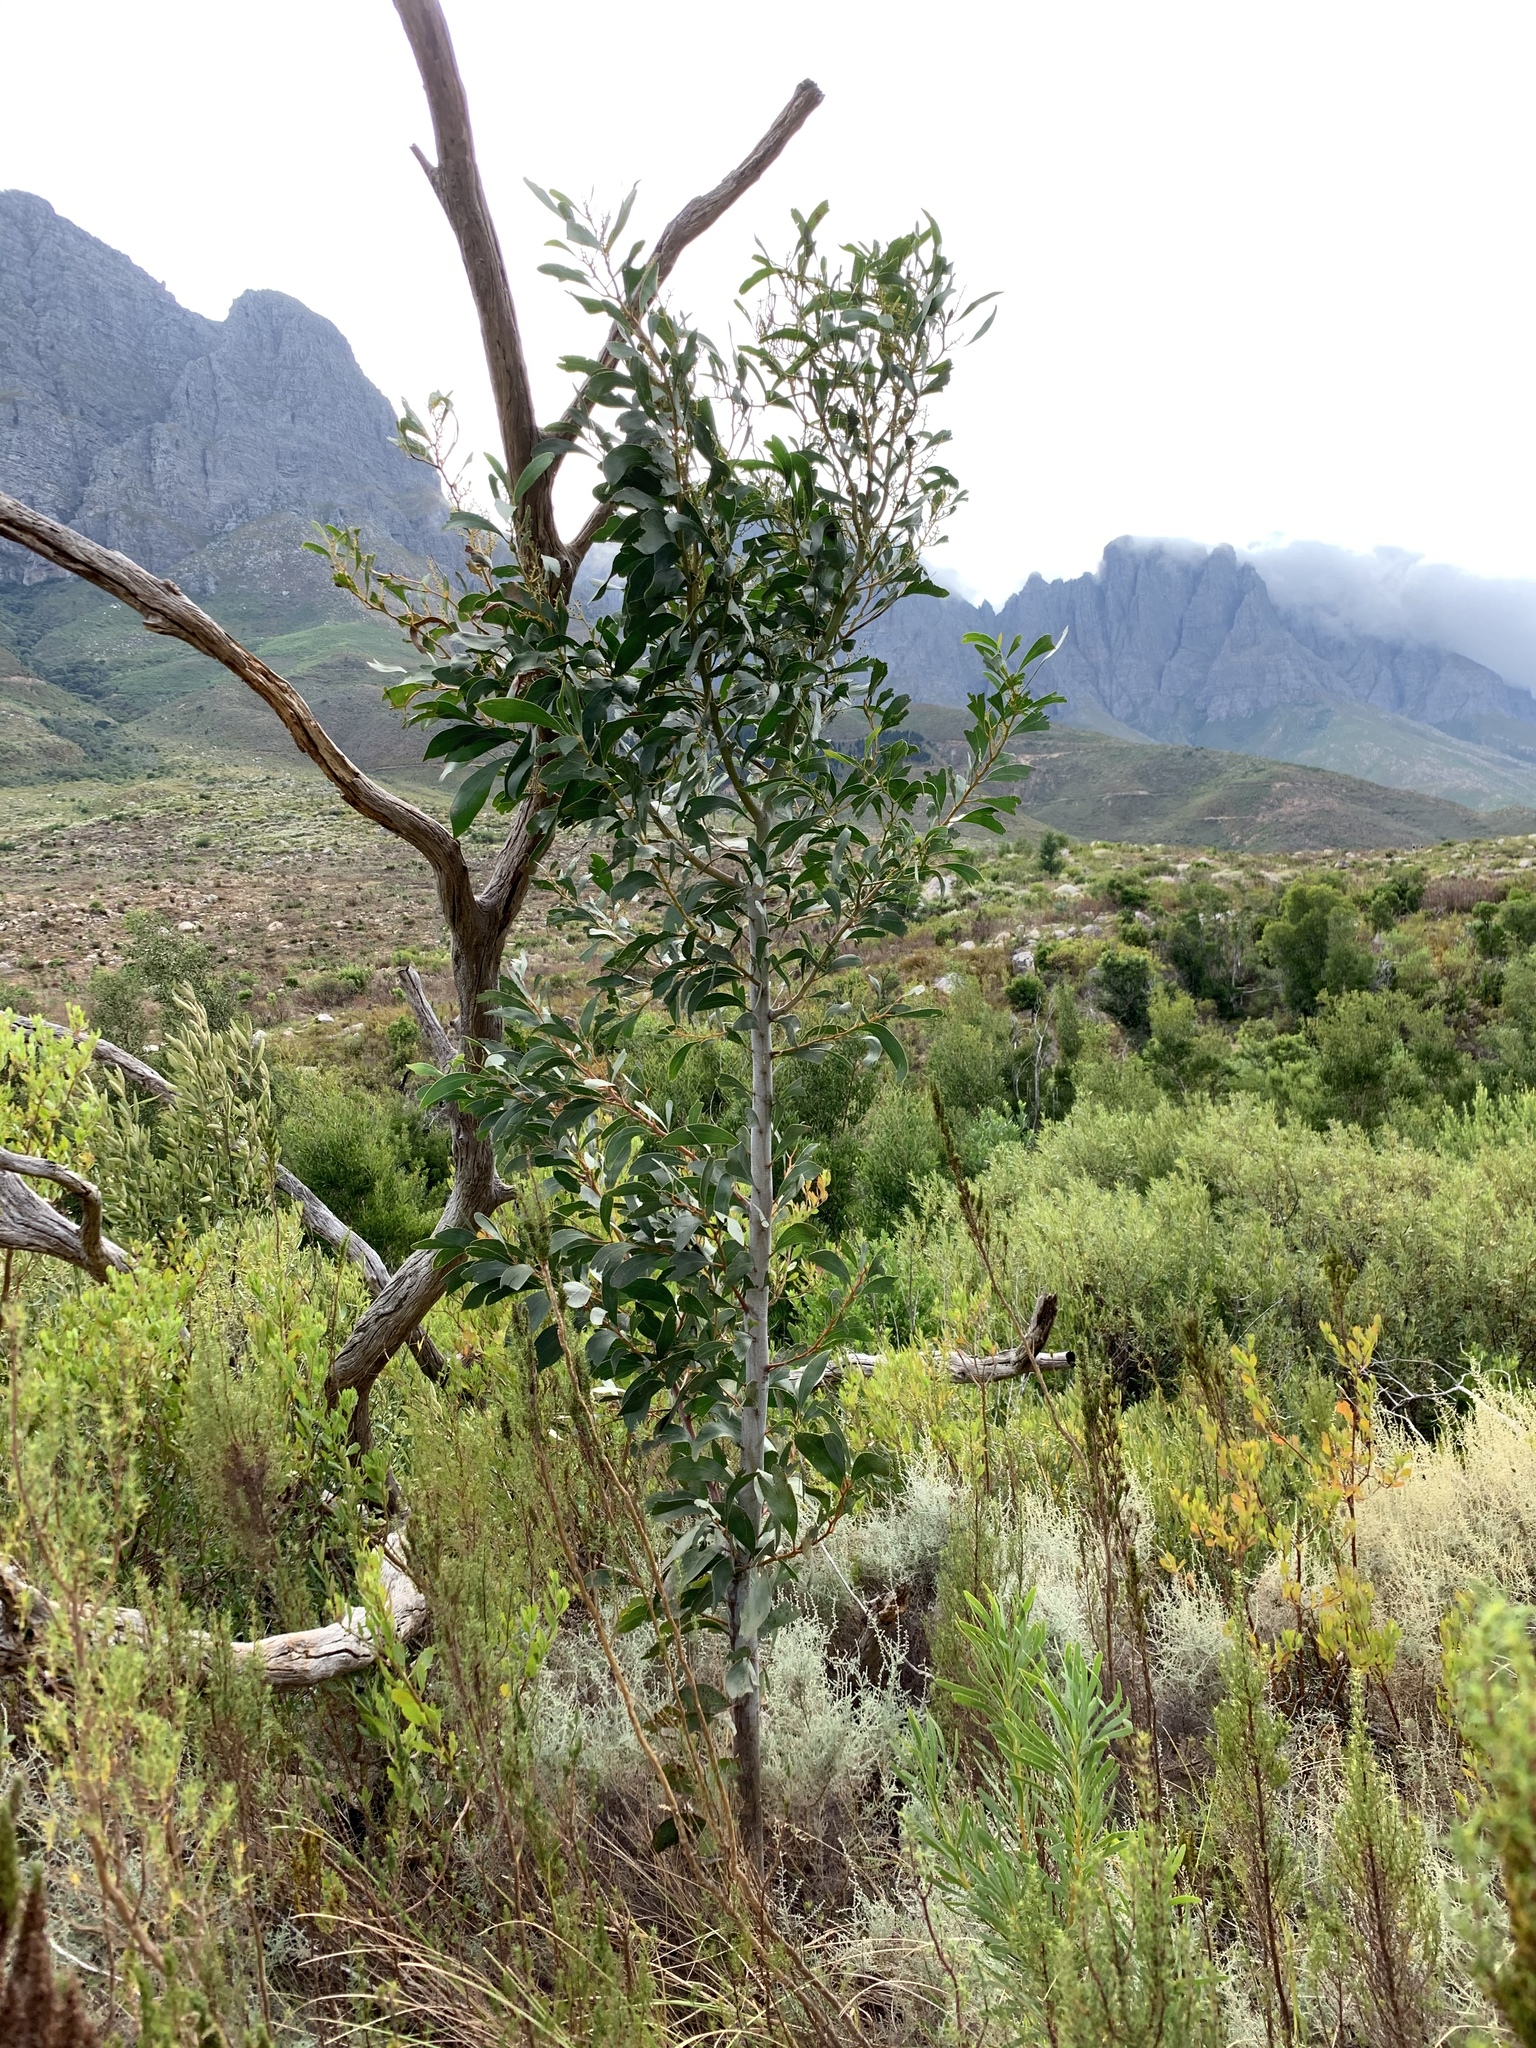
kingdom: Plantae
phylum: Tracheophyta
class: Magnoliopsida
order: Fabales
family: Fabaceae
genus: Acacia
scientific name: Acacia pycnantha
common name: Golden wattle
